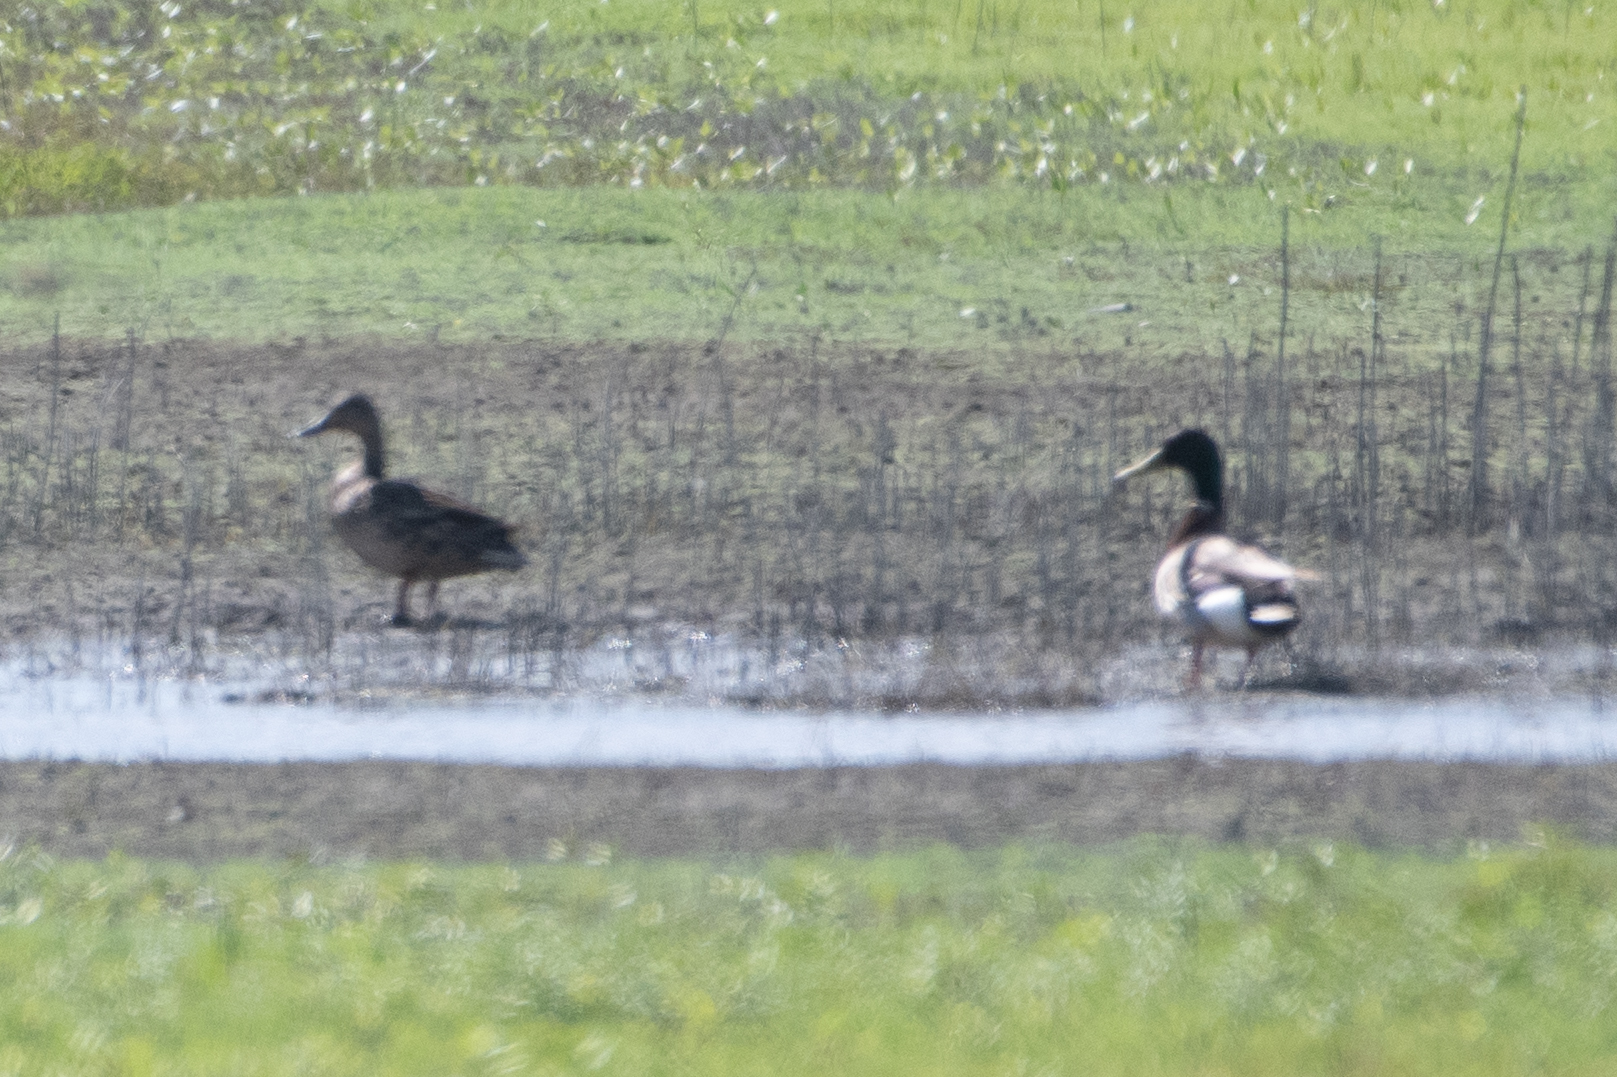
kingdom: Animalia
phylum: Chordata
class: Aves
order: Anseriformes
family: Anatidae
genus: Anas
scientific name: Anas platyrhynchos
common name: Mallard
